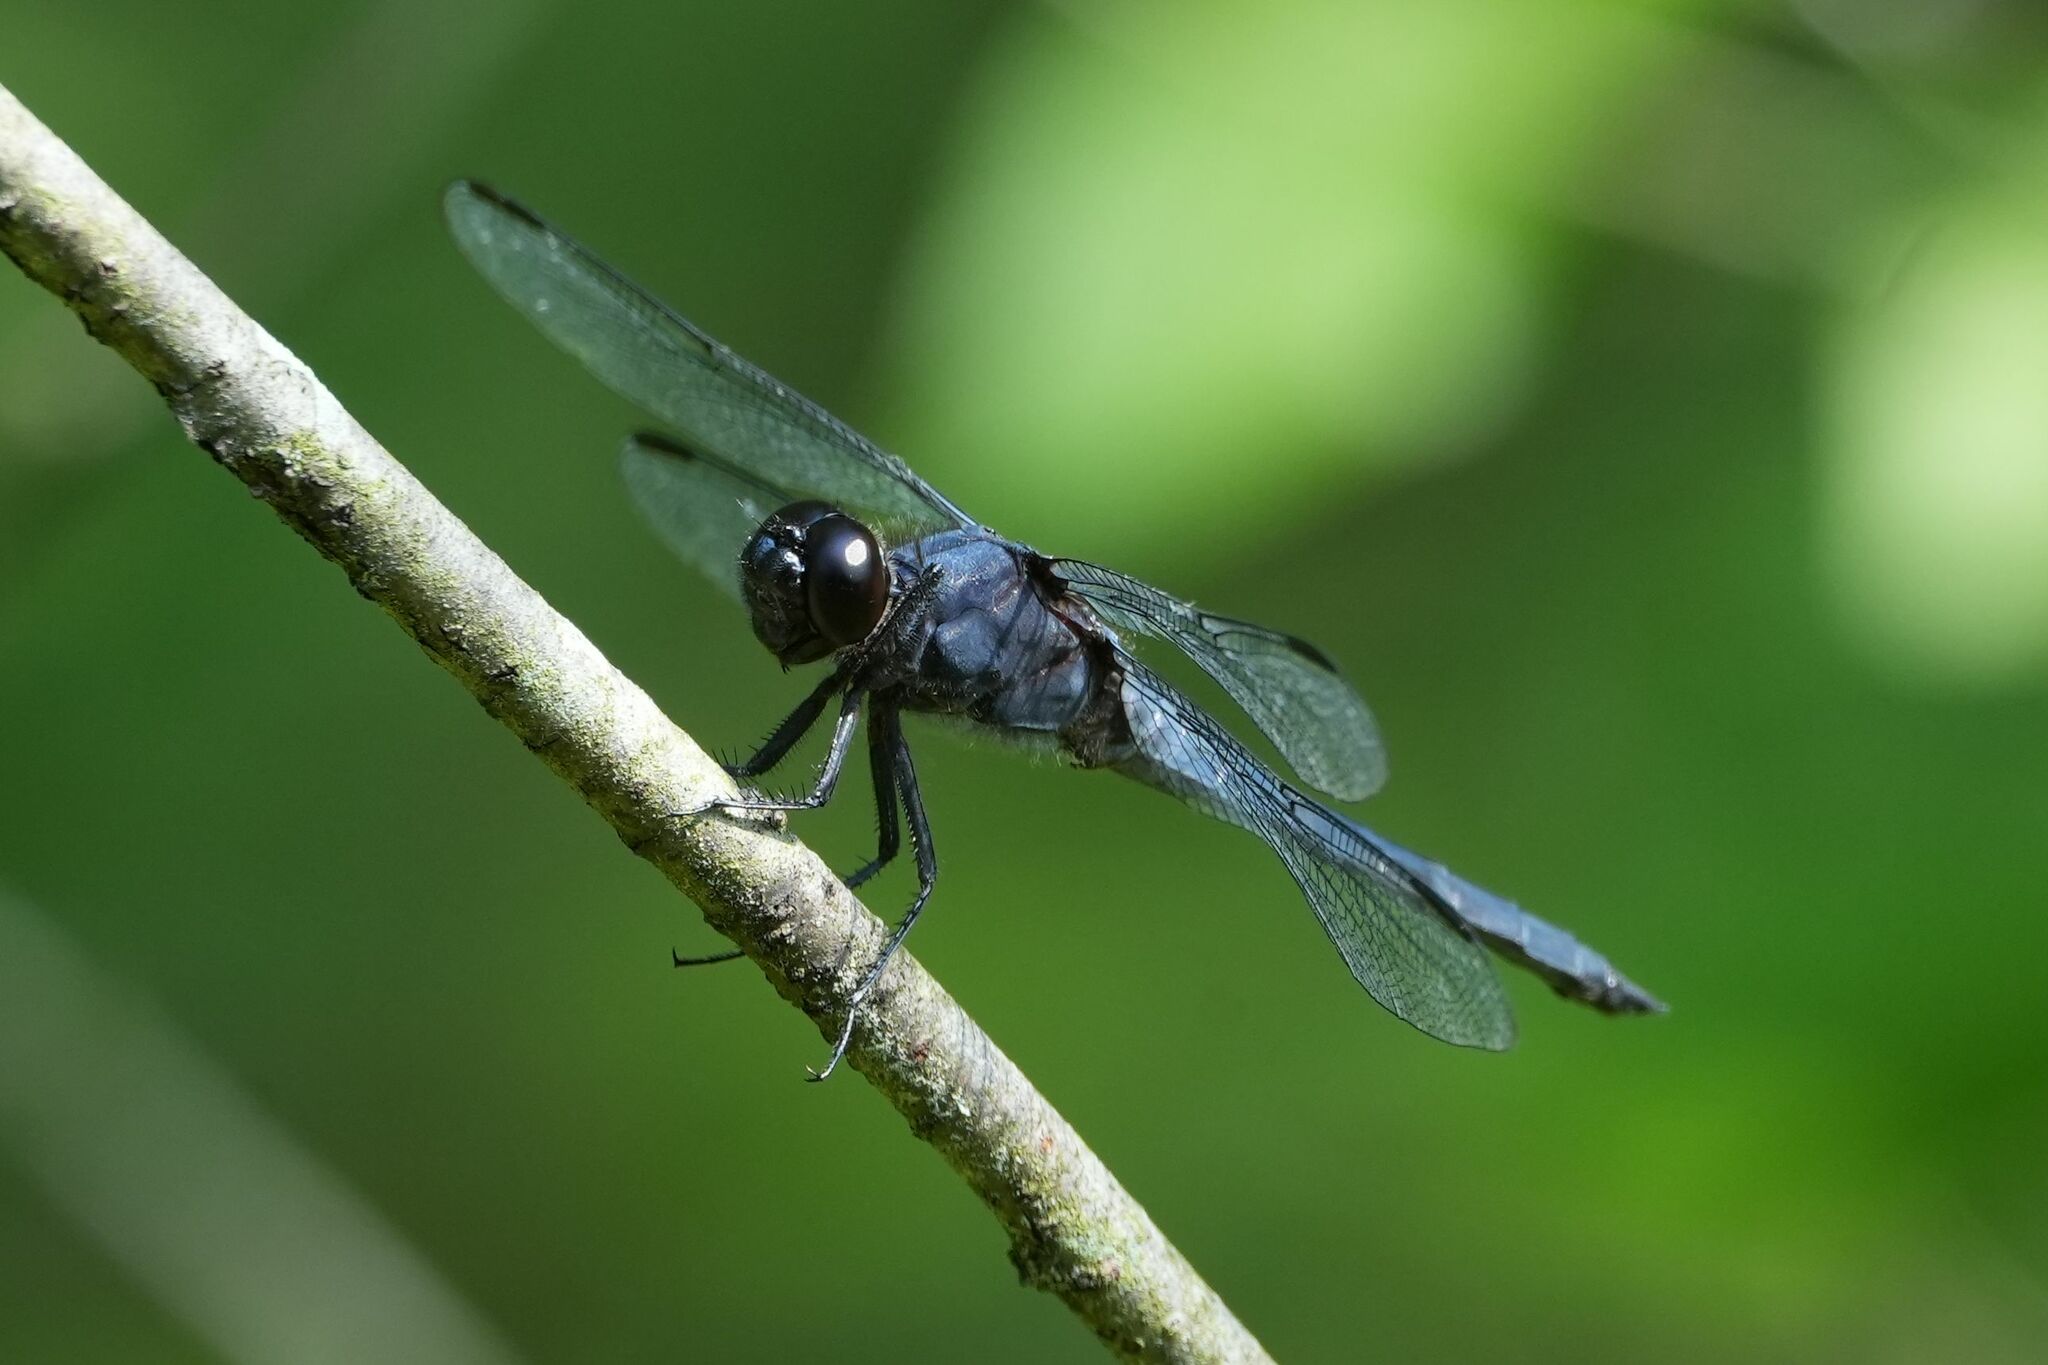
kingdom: Animalia
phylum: Arthropoda
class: Insecta
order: Odonata
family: Libellulidae
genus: Libellula
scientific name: Libellula incesta
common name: Slaty skimmer
